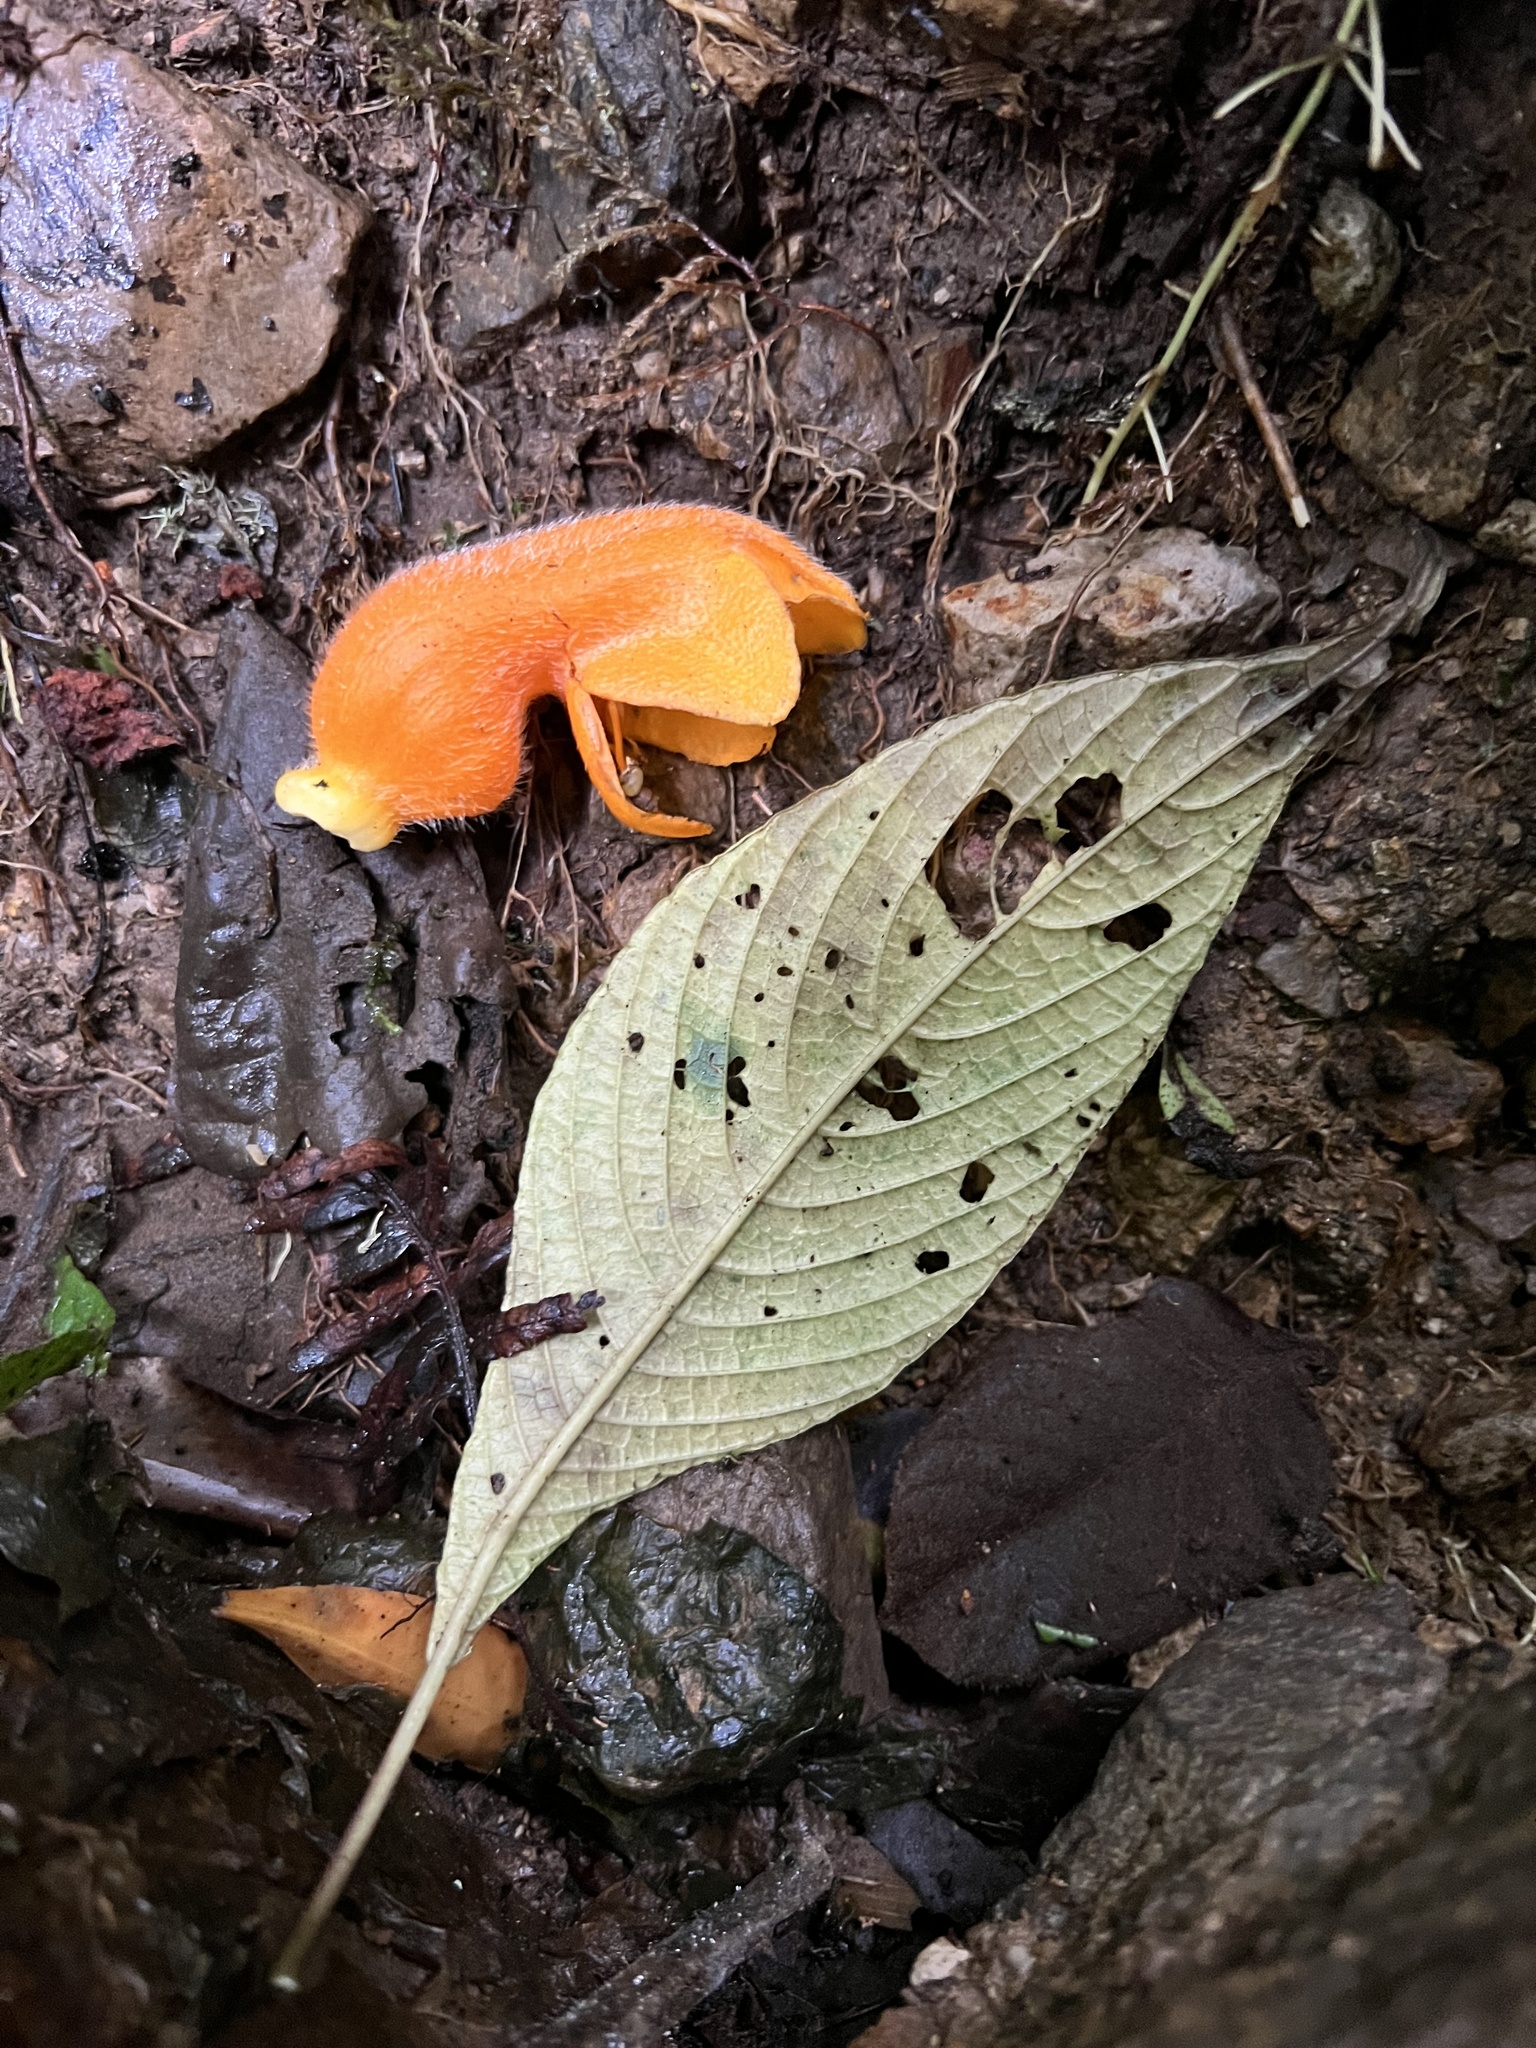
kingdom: Plantae
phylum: Tracheophyta
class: Magnoliopsida
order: Lamiales
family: Gesneriaceae
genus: Columnea
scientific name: Columnea strigosa
